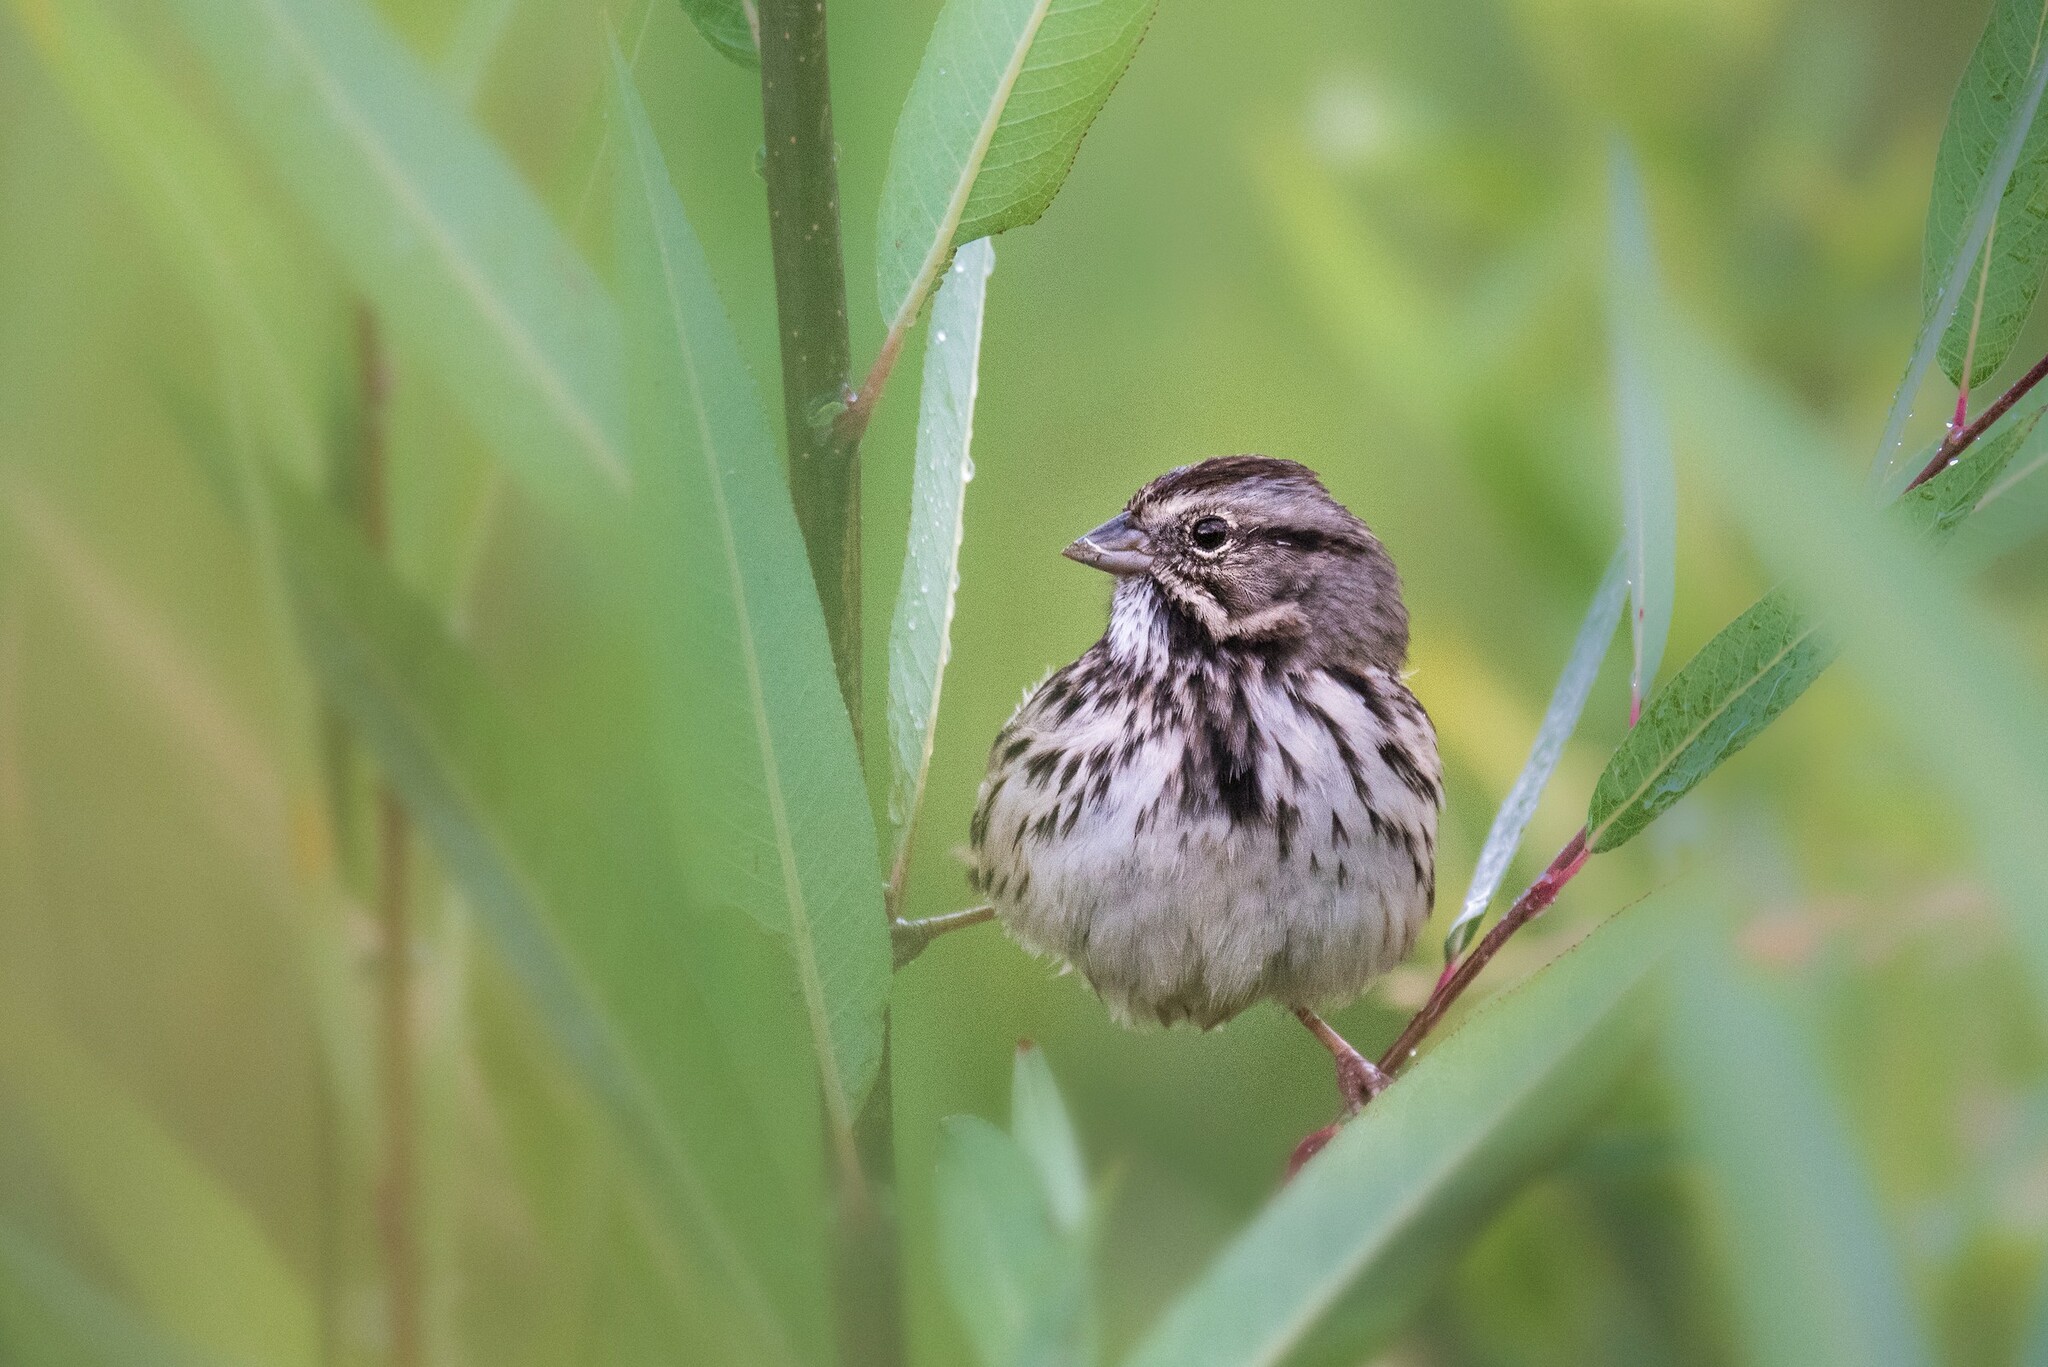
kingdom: Animalia
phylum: Chordata
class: Aves
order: Passeriformes
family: Passerellidae
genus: Melospiza
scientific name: Melospiza melodia
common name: Song sparrow
